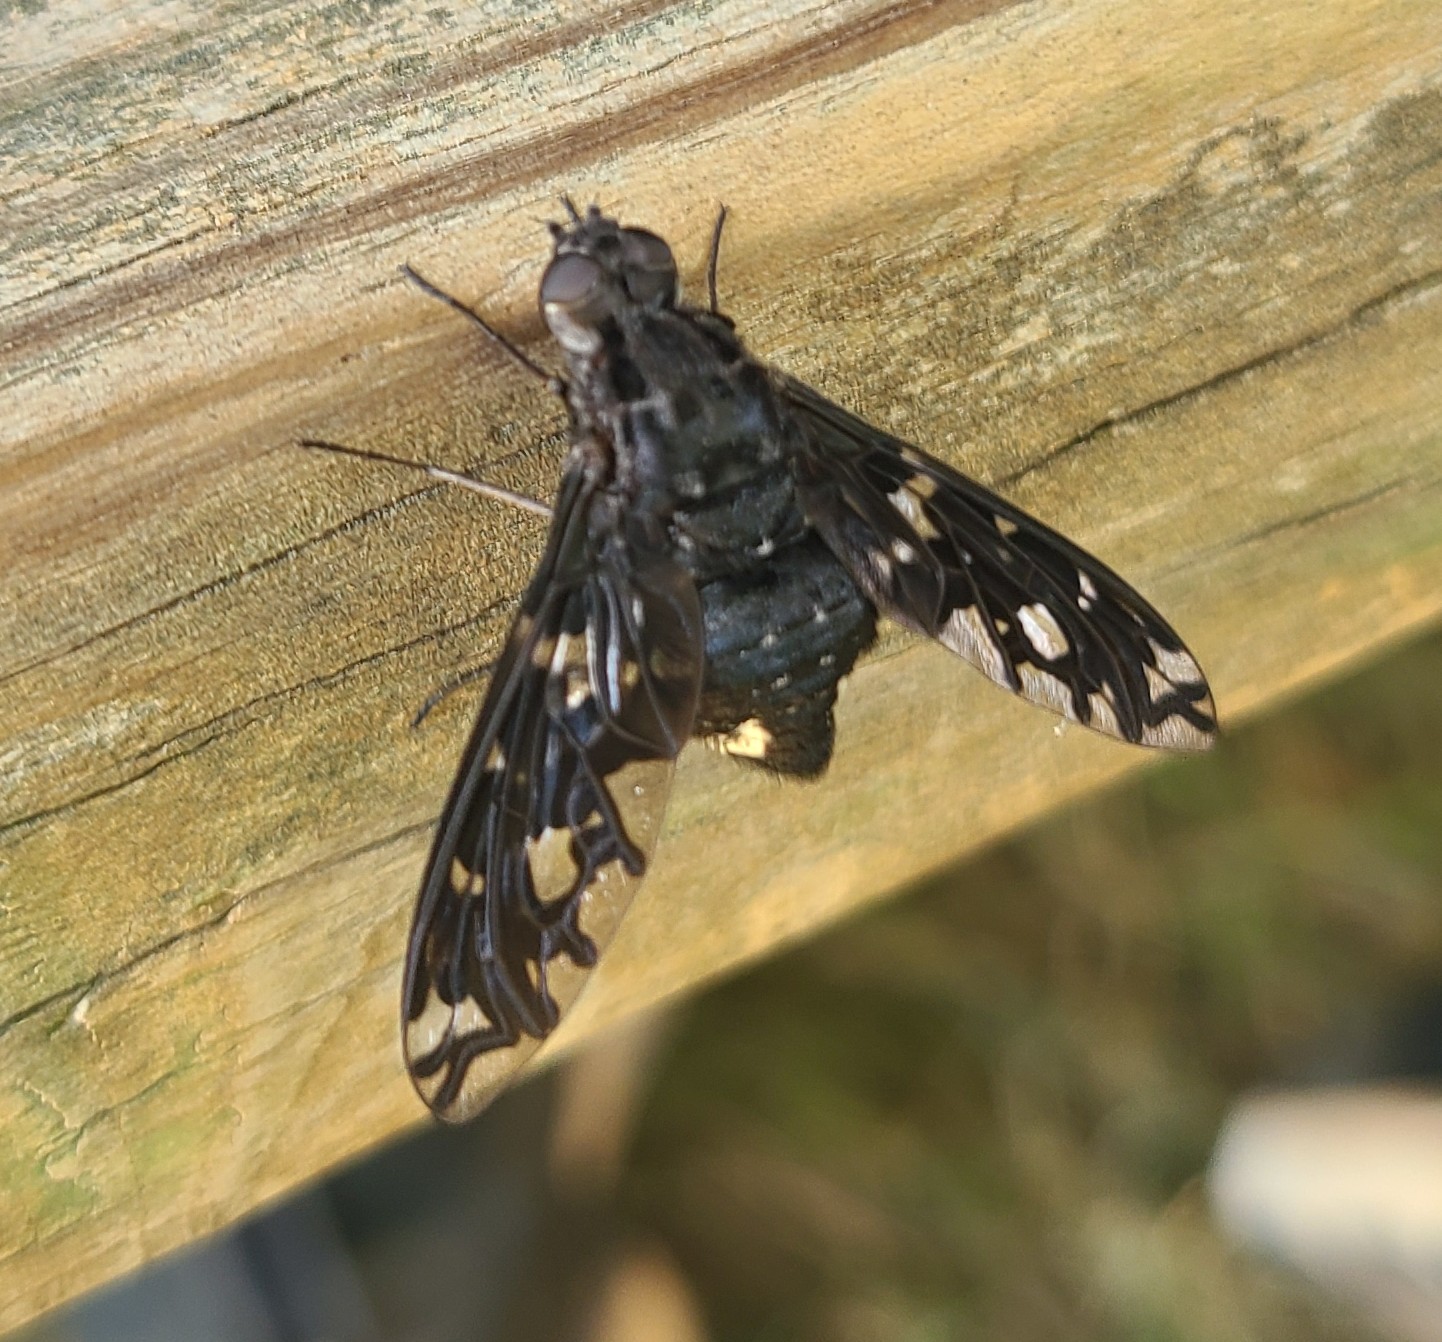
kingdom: Animalia
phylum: Arthropoda
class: Insecta
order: Diptera
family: Bombyliidae
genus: Xenox
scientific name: Xenox tigrinus
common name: Tiger bee fly
